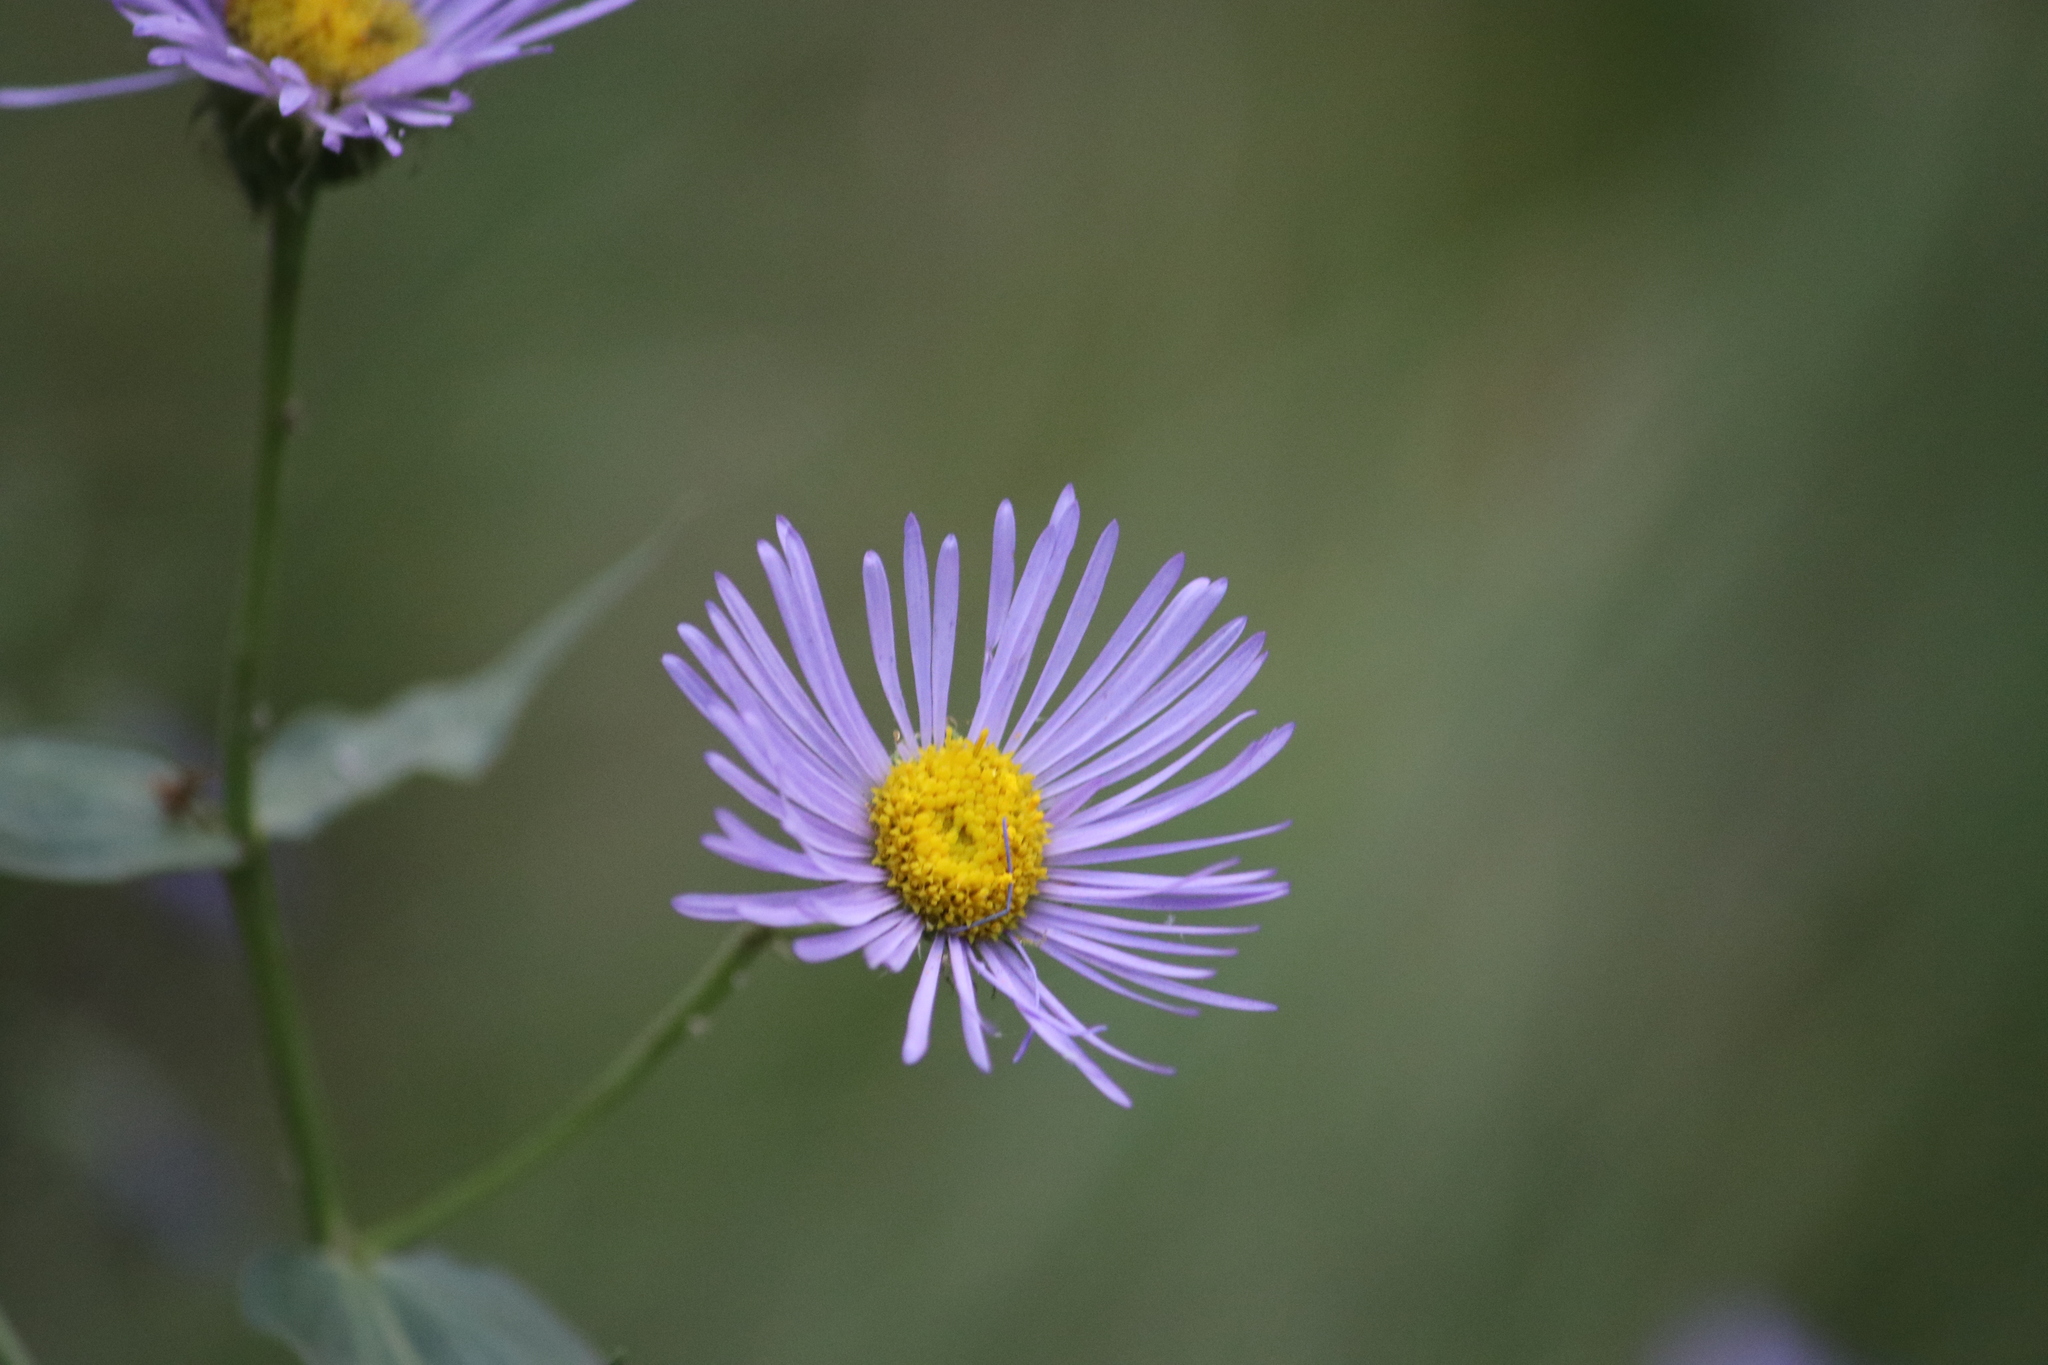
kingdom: Animalia
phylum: Arthropoda
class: Insecta
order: Lepidoptera
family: Nymphalidae
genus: Speyeria
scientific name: Speyeria atlantis
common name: Atlantis fritillary
